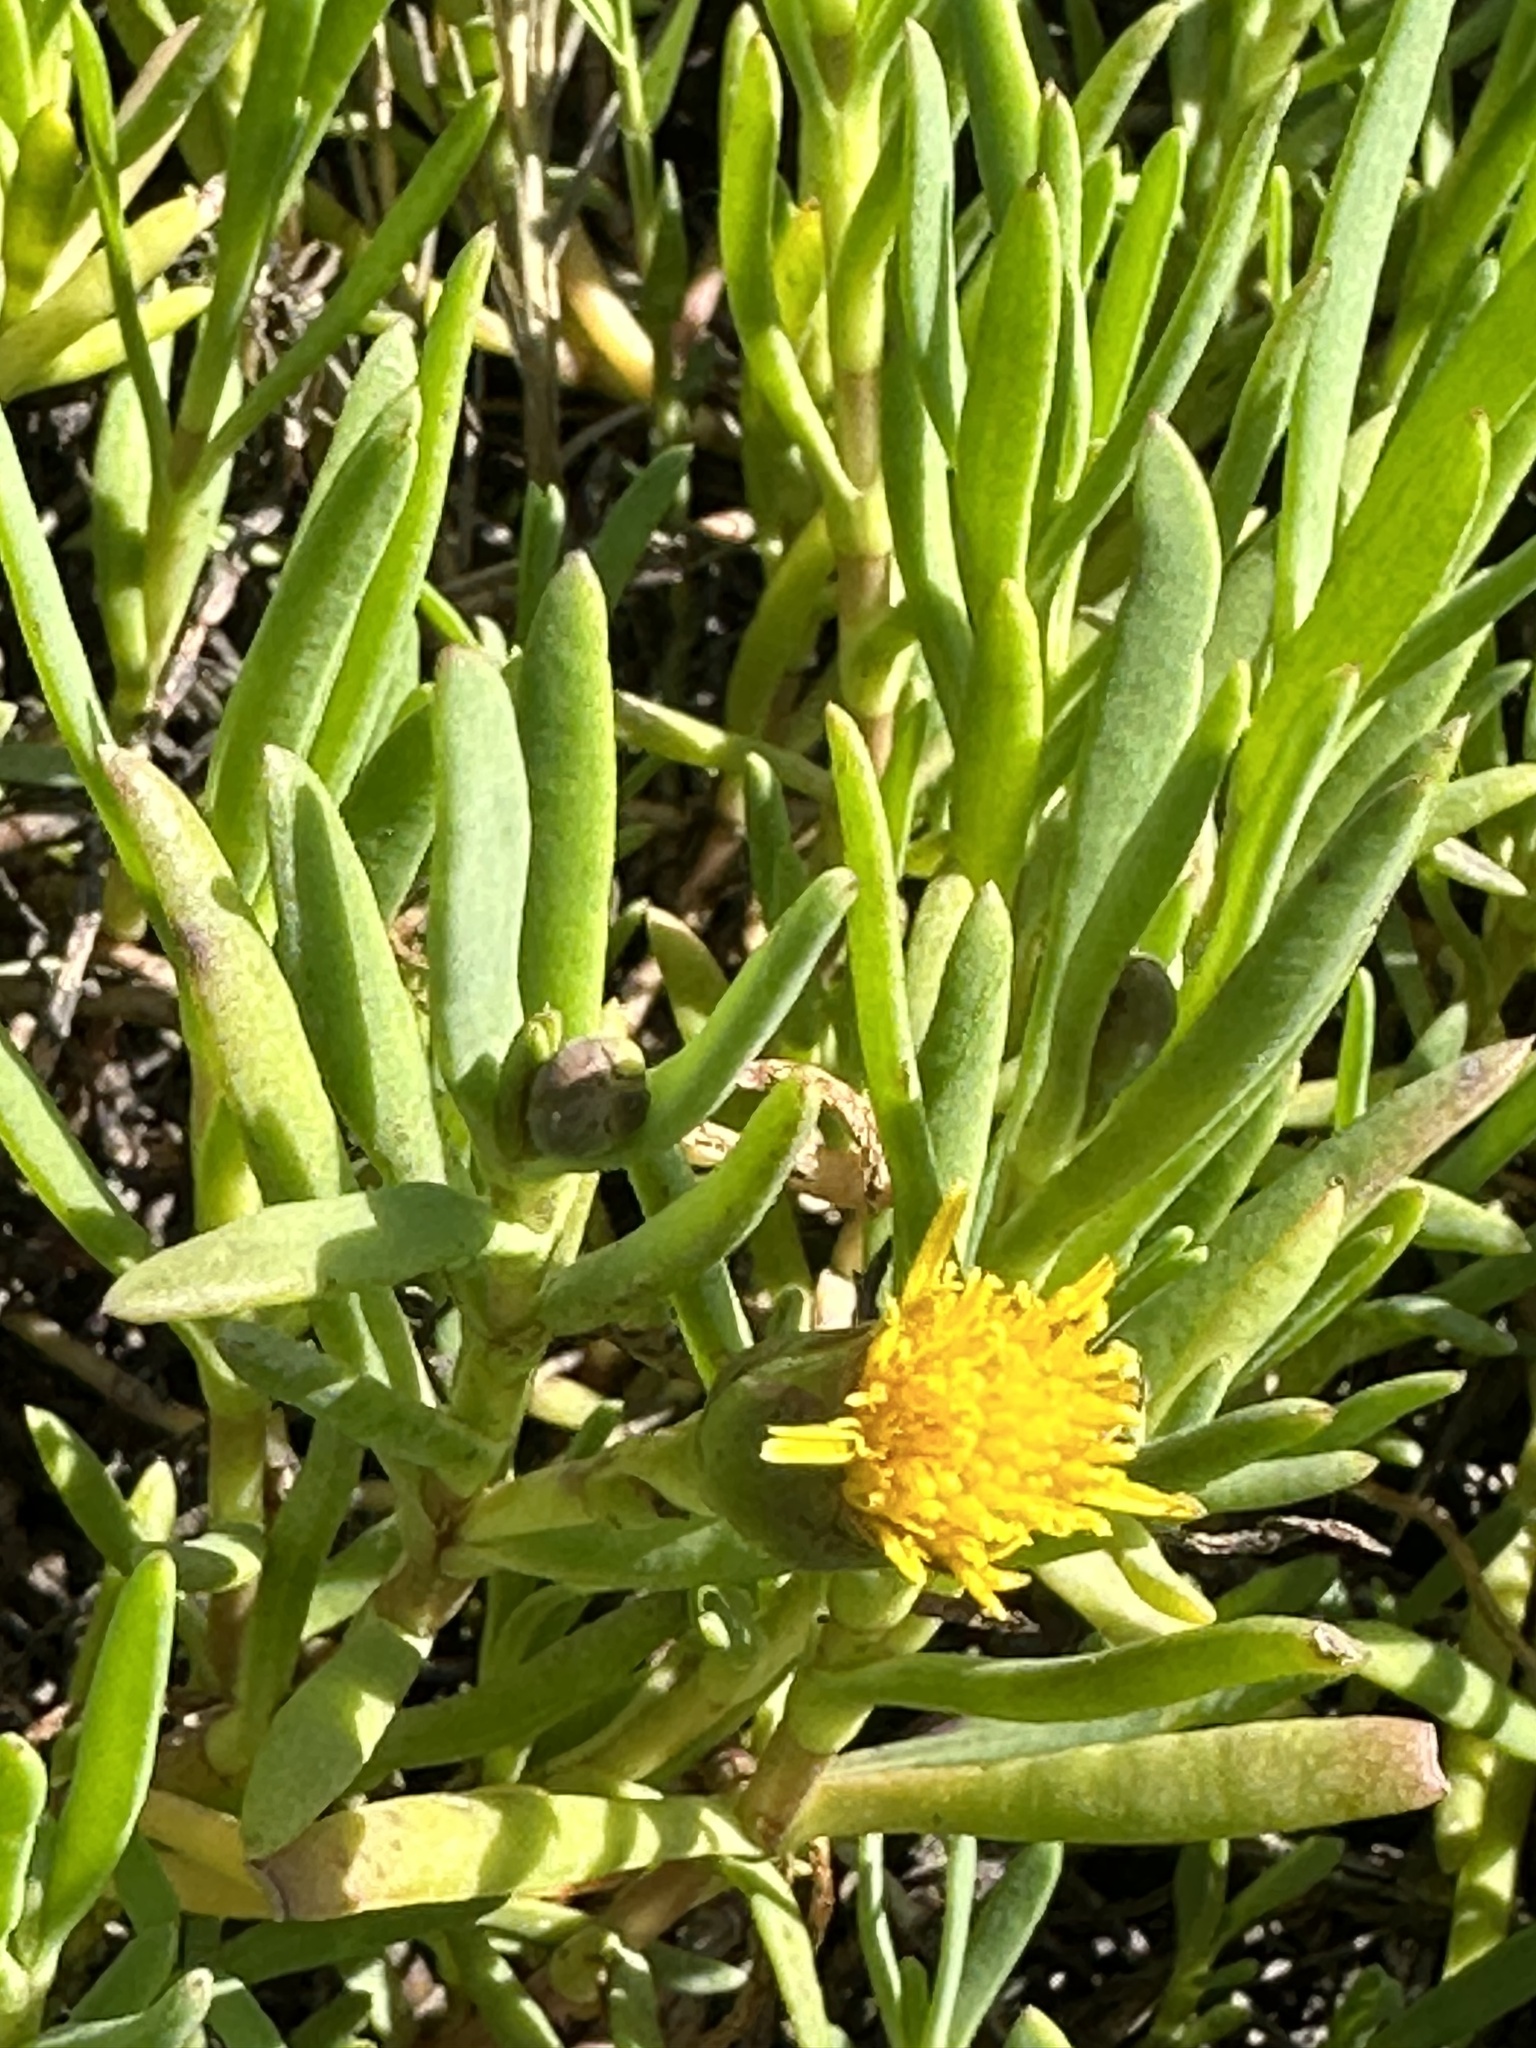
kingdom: Plantae
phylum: Tracheophyta
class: Magnoliopsida
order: Asterales
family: Asteraceae
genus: Jaumea
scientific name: Jaumea carnosa
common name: Fleshy jaumea
